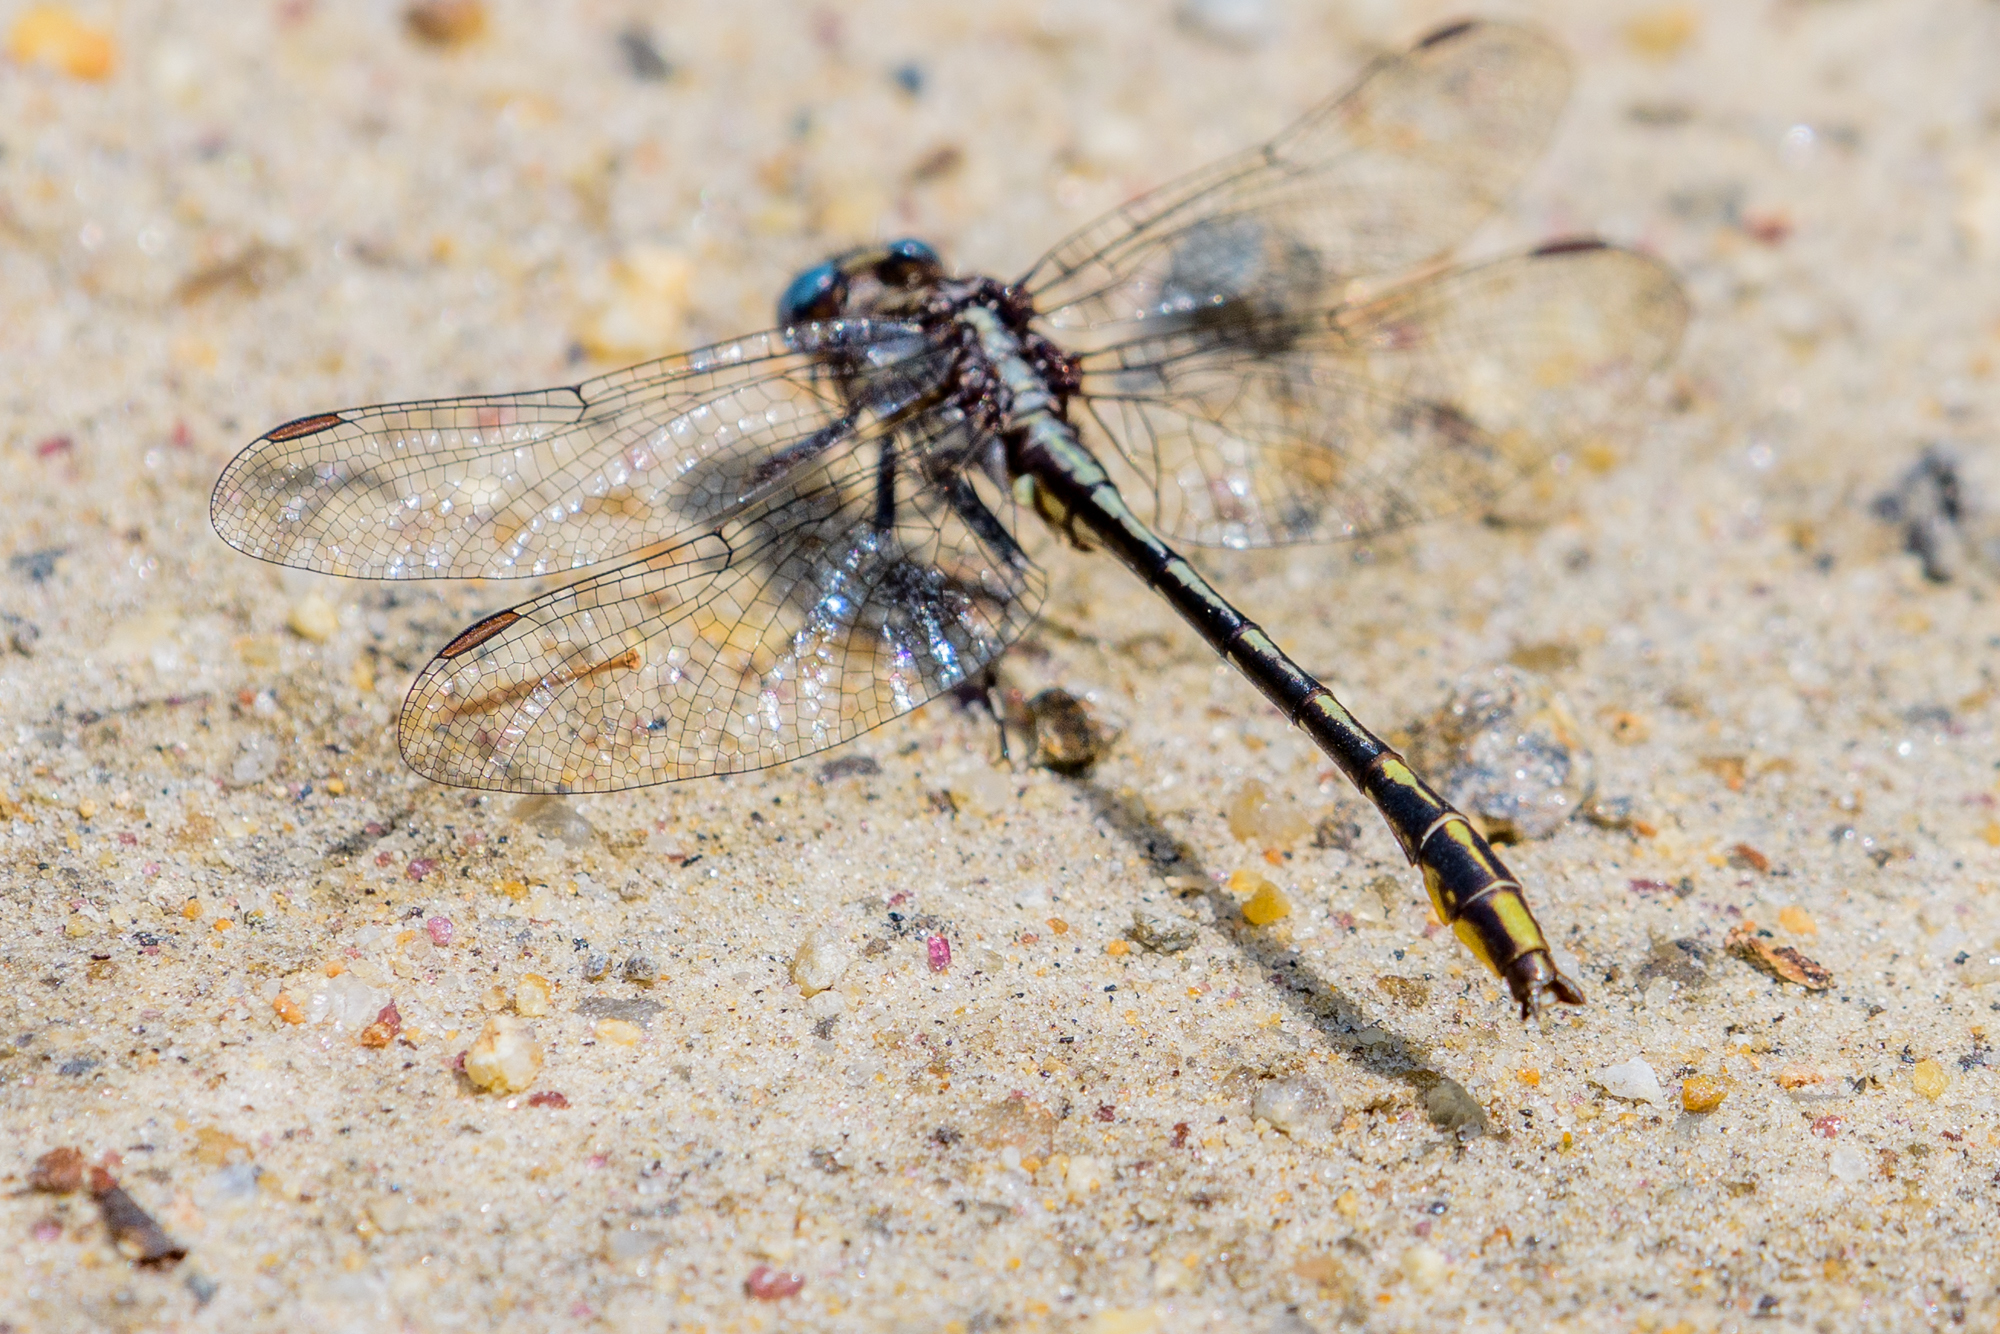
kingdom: Animalia
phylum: Arthropoda
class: Insecta
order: Odonata
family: Gomphidae
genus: Phanogomphus
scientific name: Phanogomphus exilis
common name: Lancet clubtail
